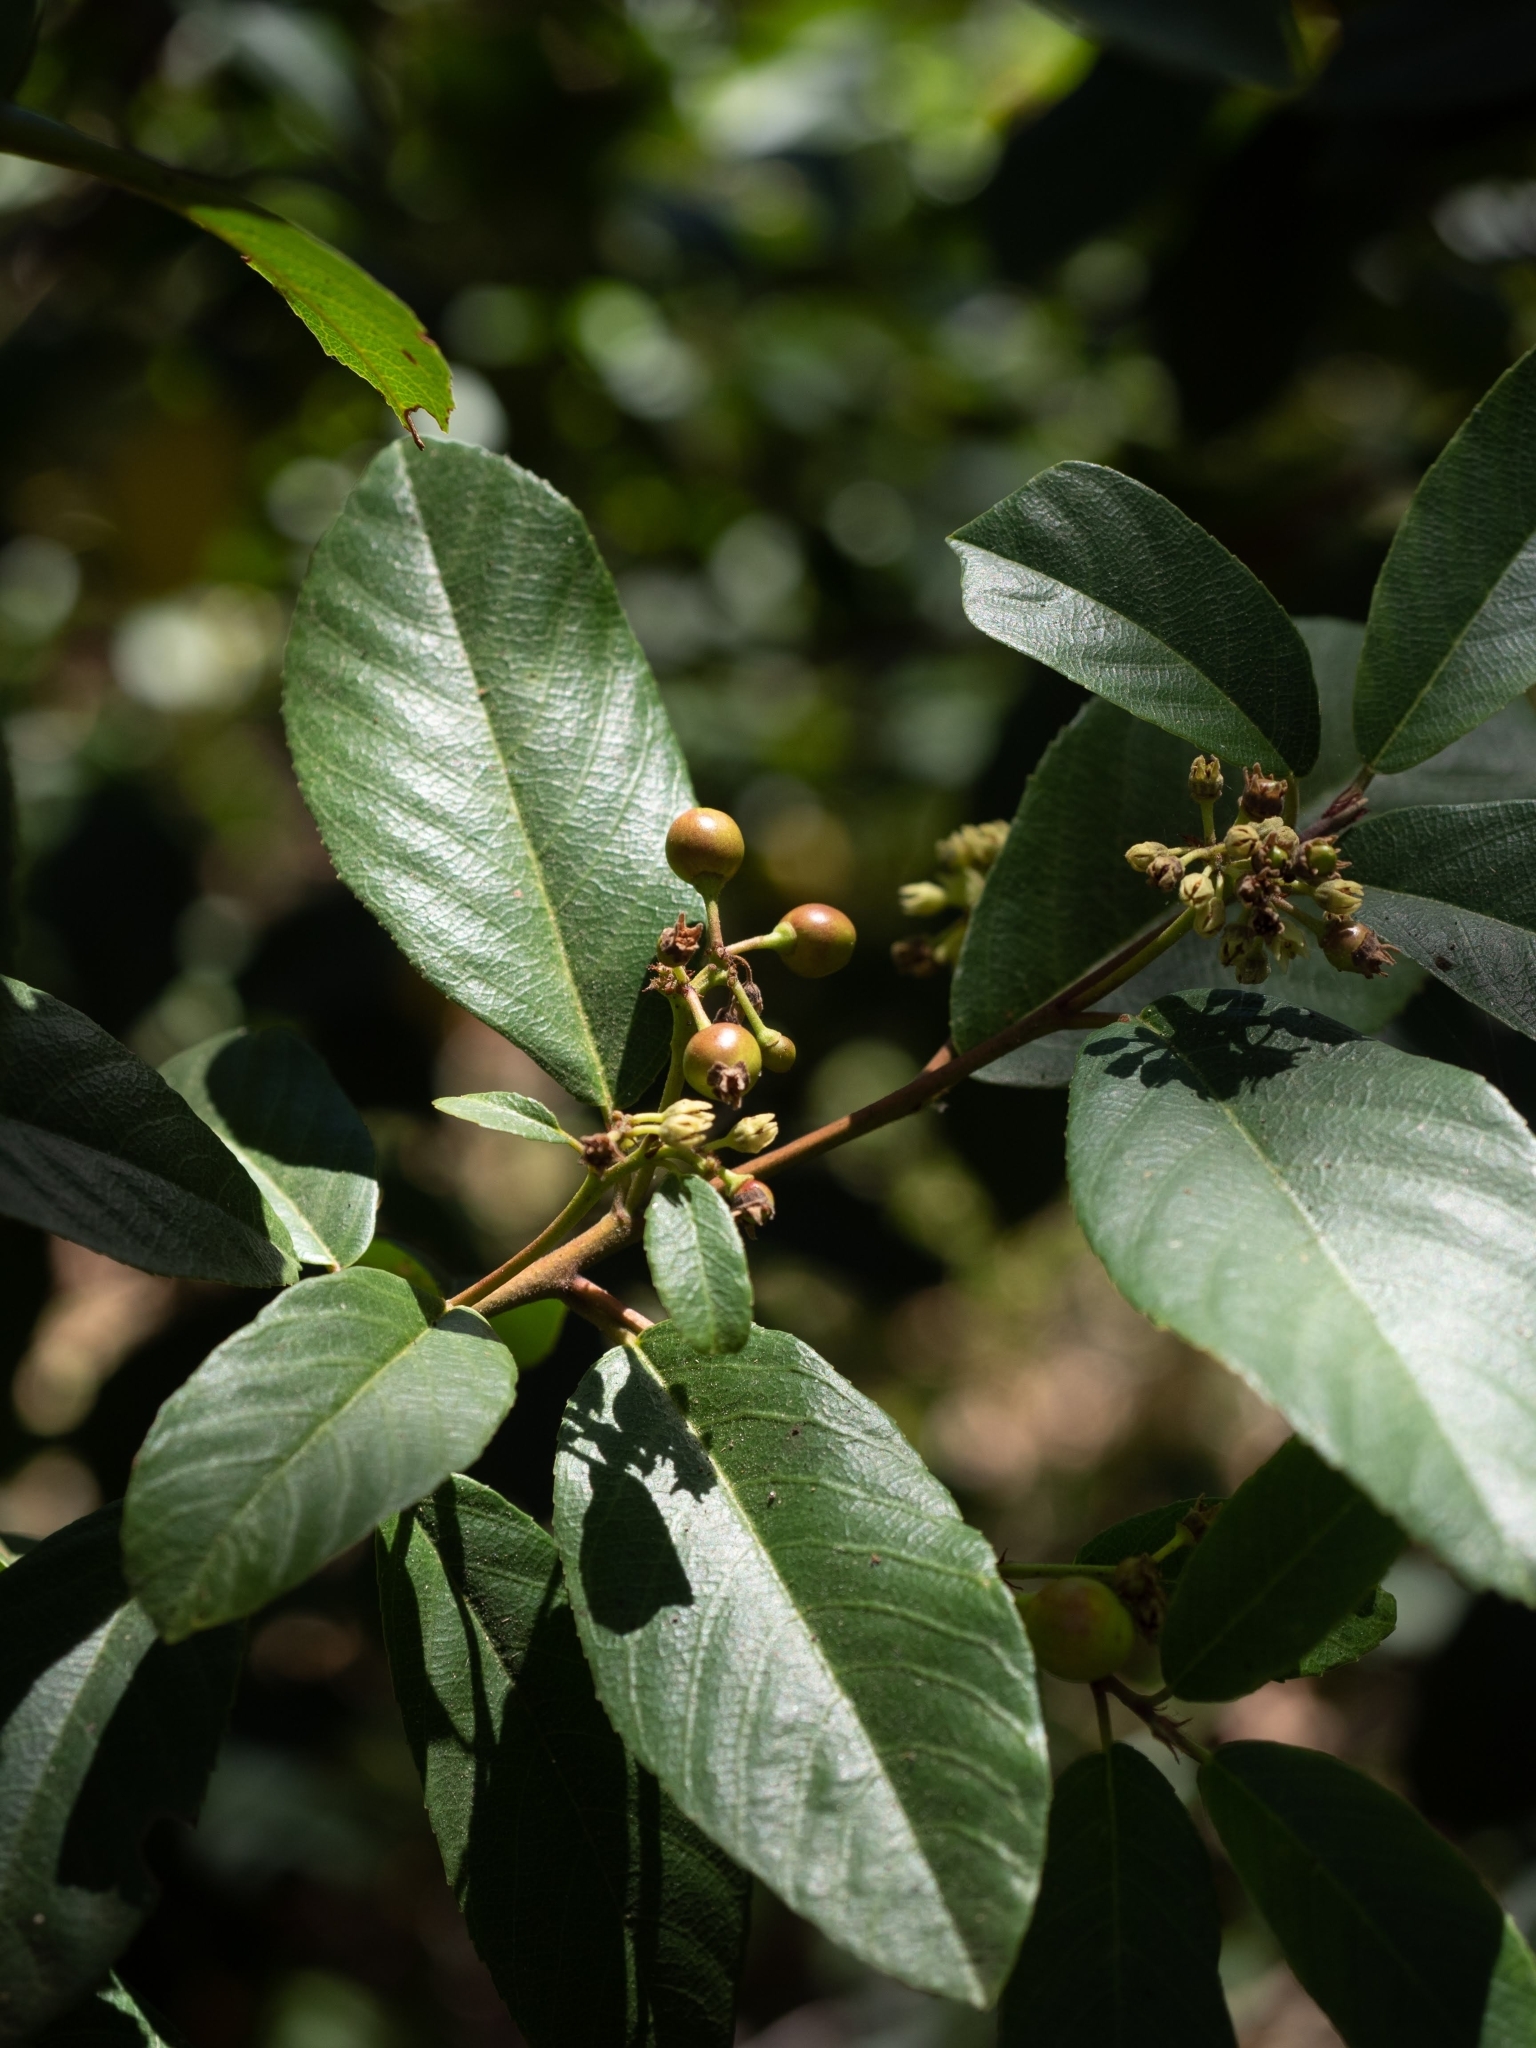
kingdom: Plantae
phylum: Tracheophyta
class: Magnoliopsida
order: Rosales
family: Rhamnaceae
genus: Frangula
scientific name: Frangula californica
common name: California buckthorn
